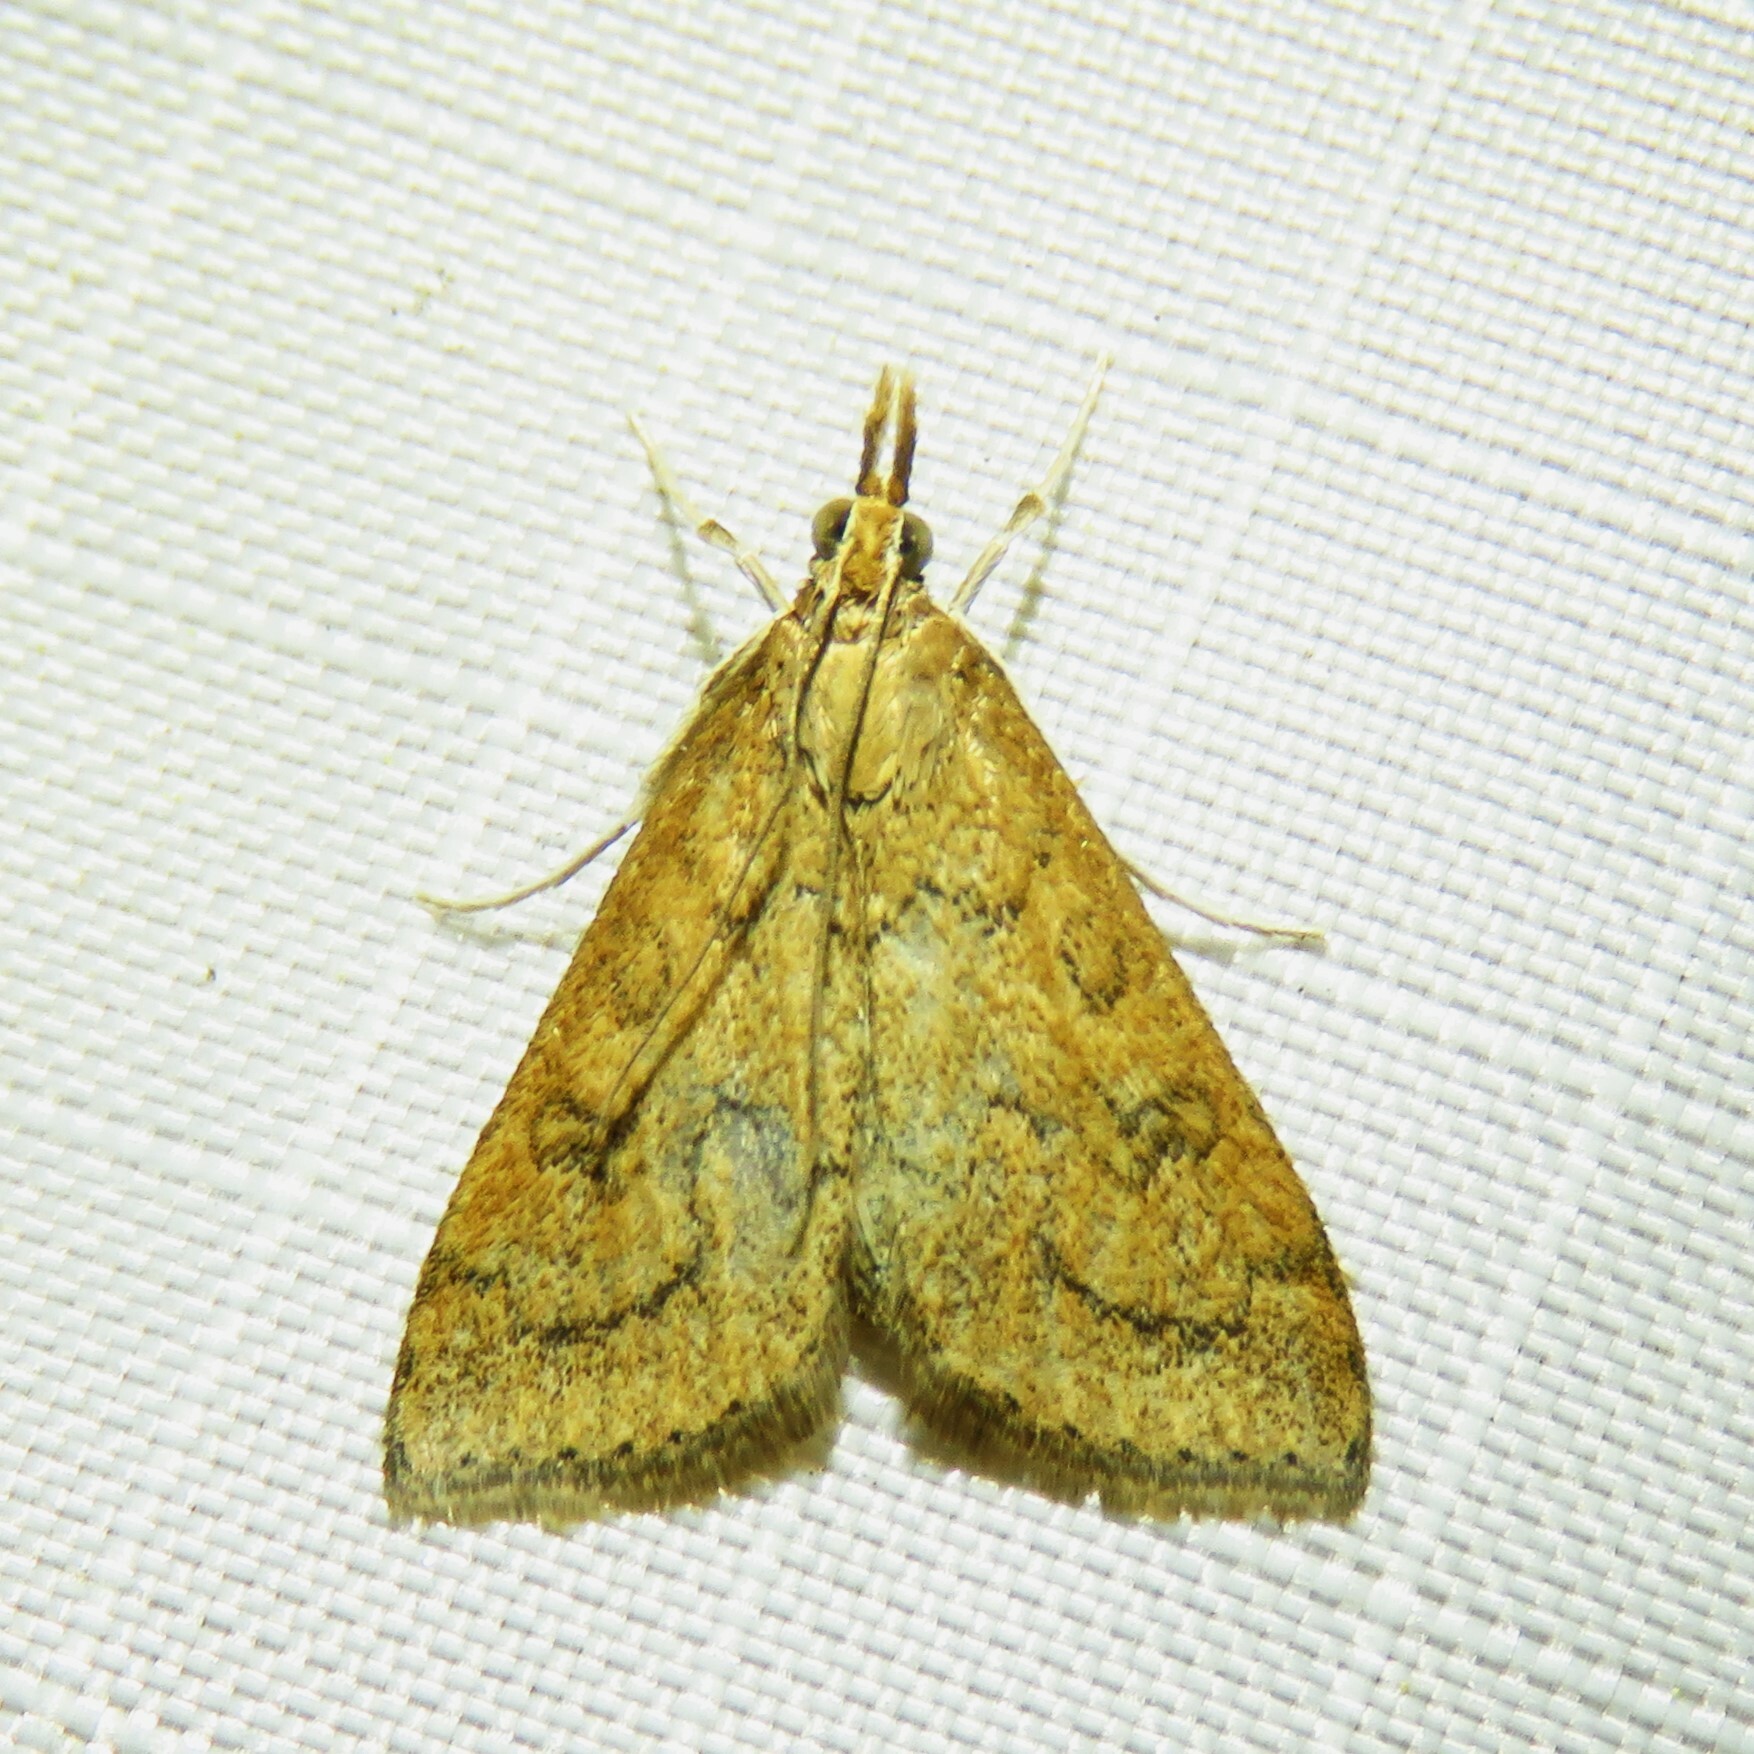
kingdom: Animalia
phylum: Arthropoda
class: Insecta
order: Lepidoptera
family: Crambidae
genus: Udea
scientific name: Udea rubigalis
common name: Celery leaftier moth
